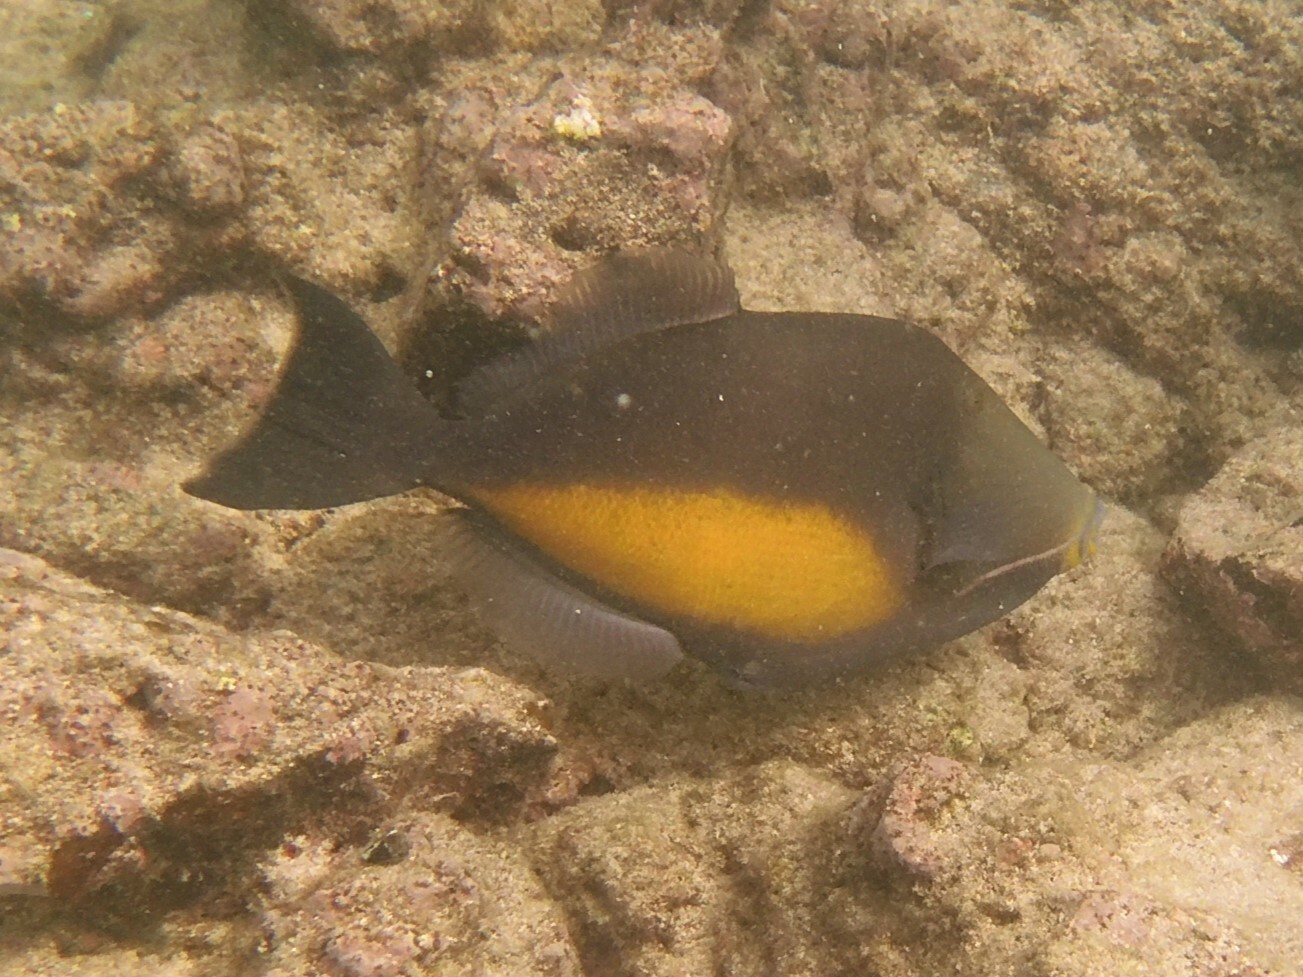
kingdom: Animalia
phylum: Chordata
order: Tetraodontiformes
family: Balistidae
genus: Sufflamen
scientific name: Sufflamen verres
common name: Orangeside triggerfish
